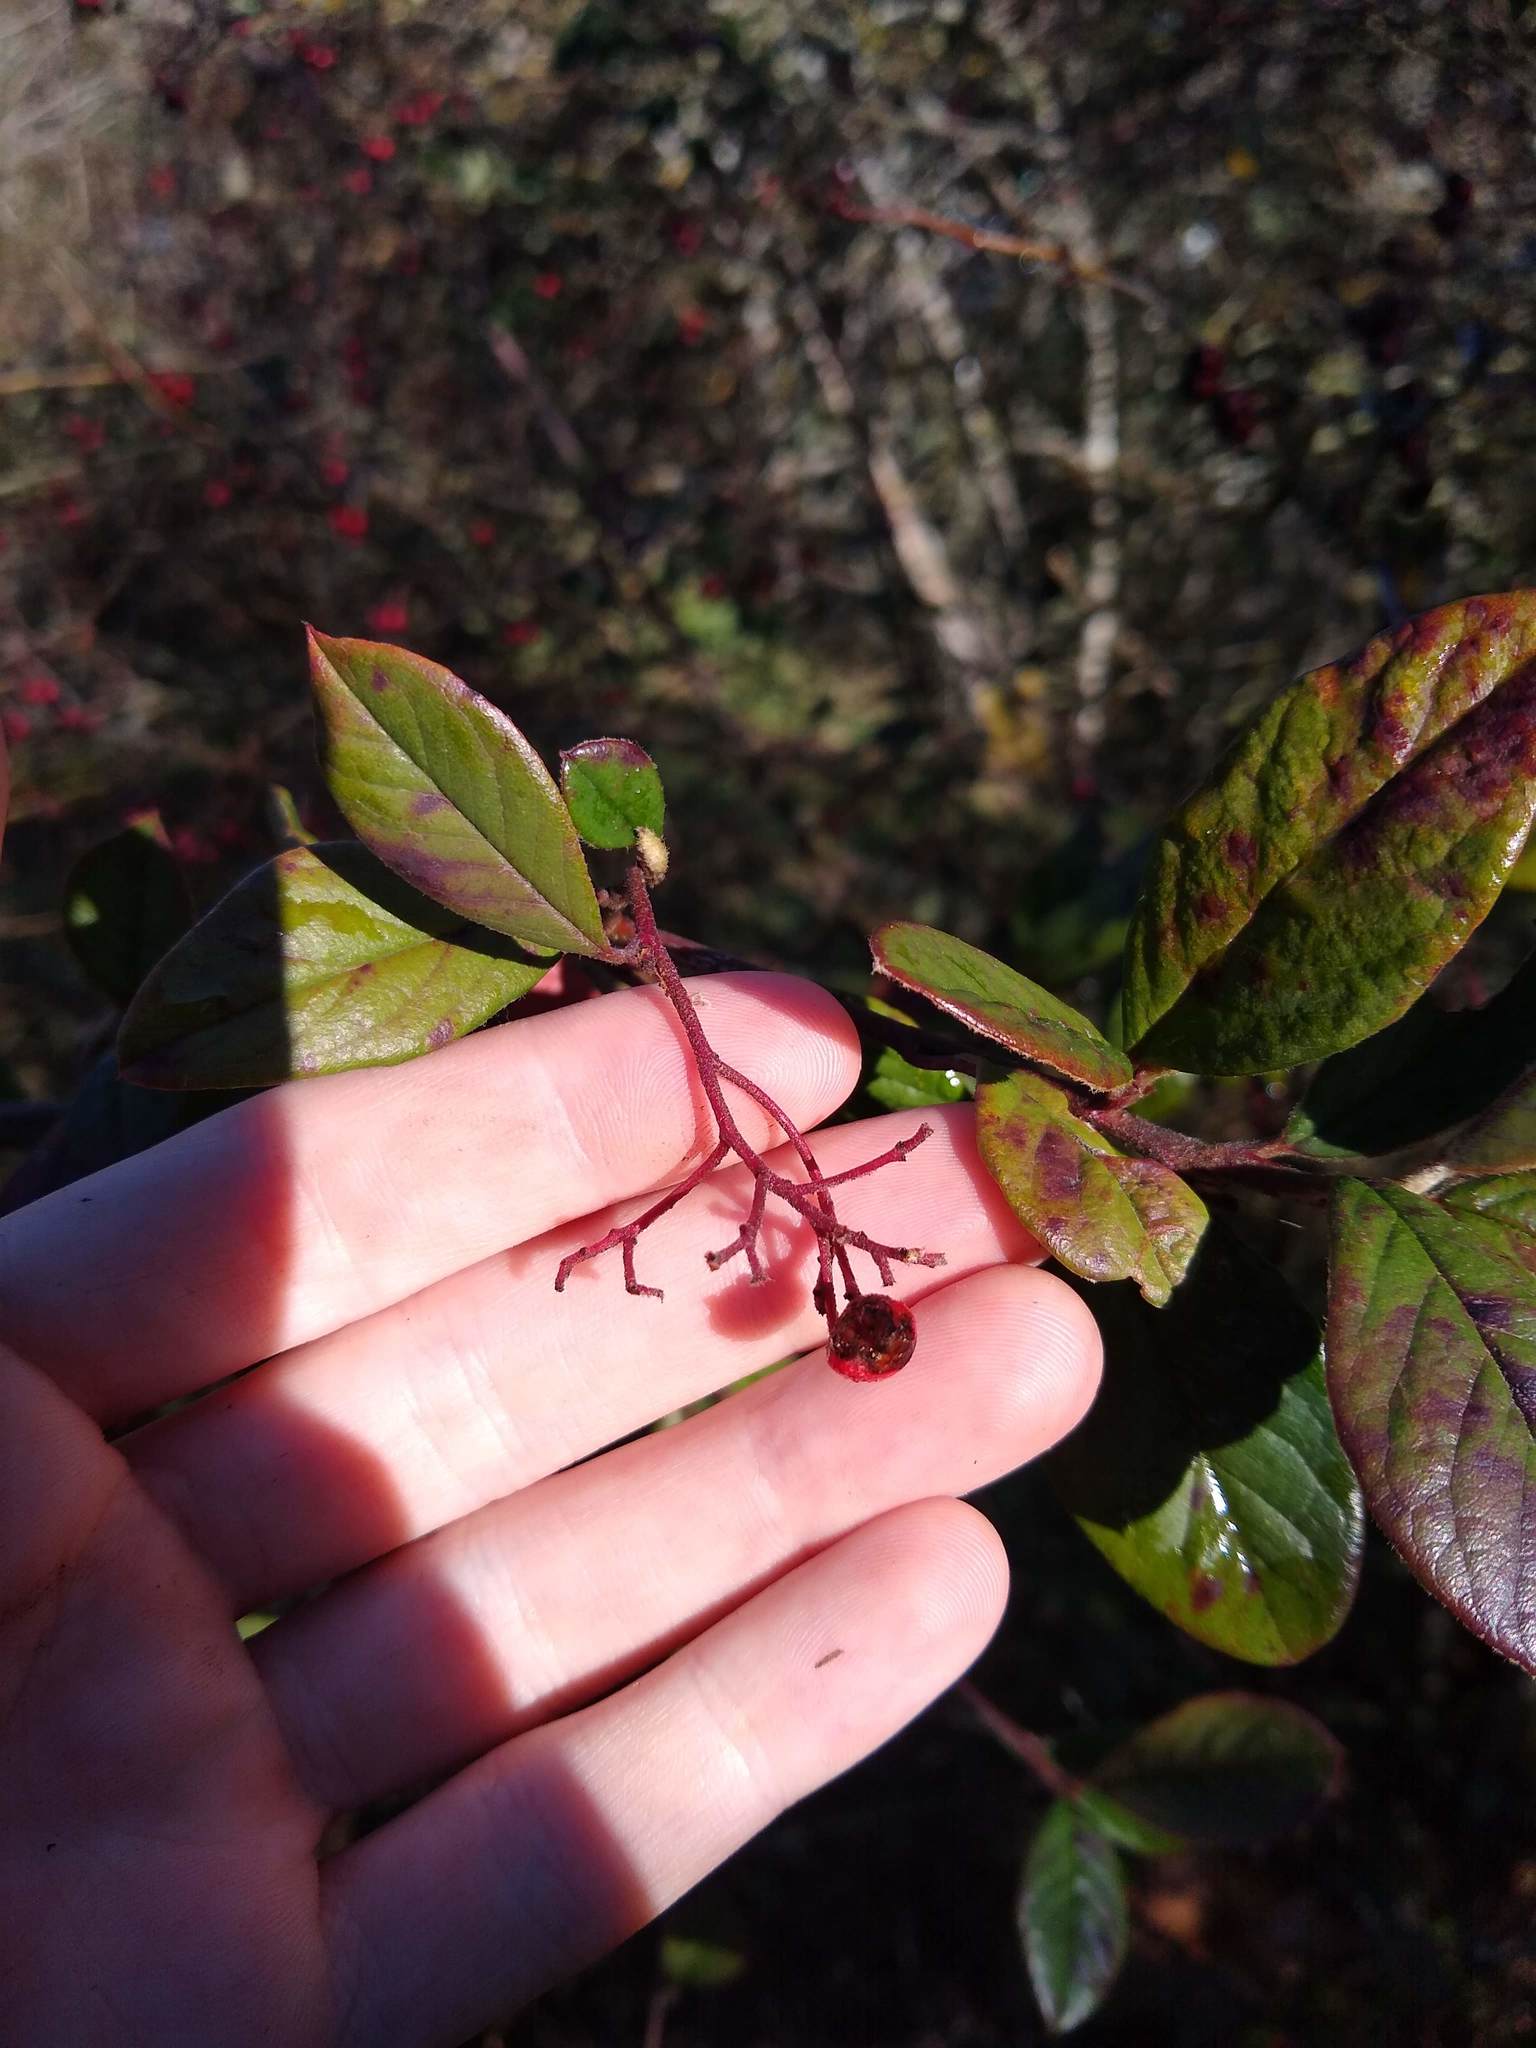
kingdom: Plantae
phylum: Tracheophyta
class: Magnoliopsida
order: Rosales
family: Rosaceae
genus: Cotoneaster
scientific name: Cotoneaster coriaceus
